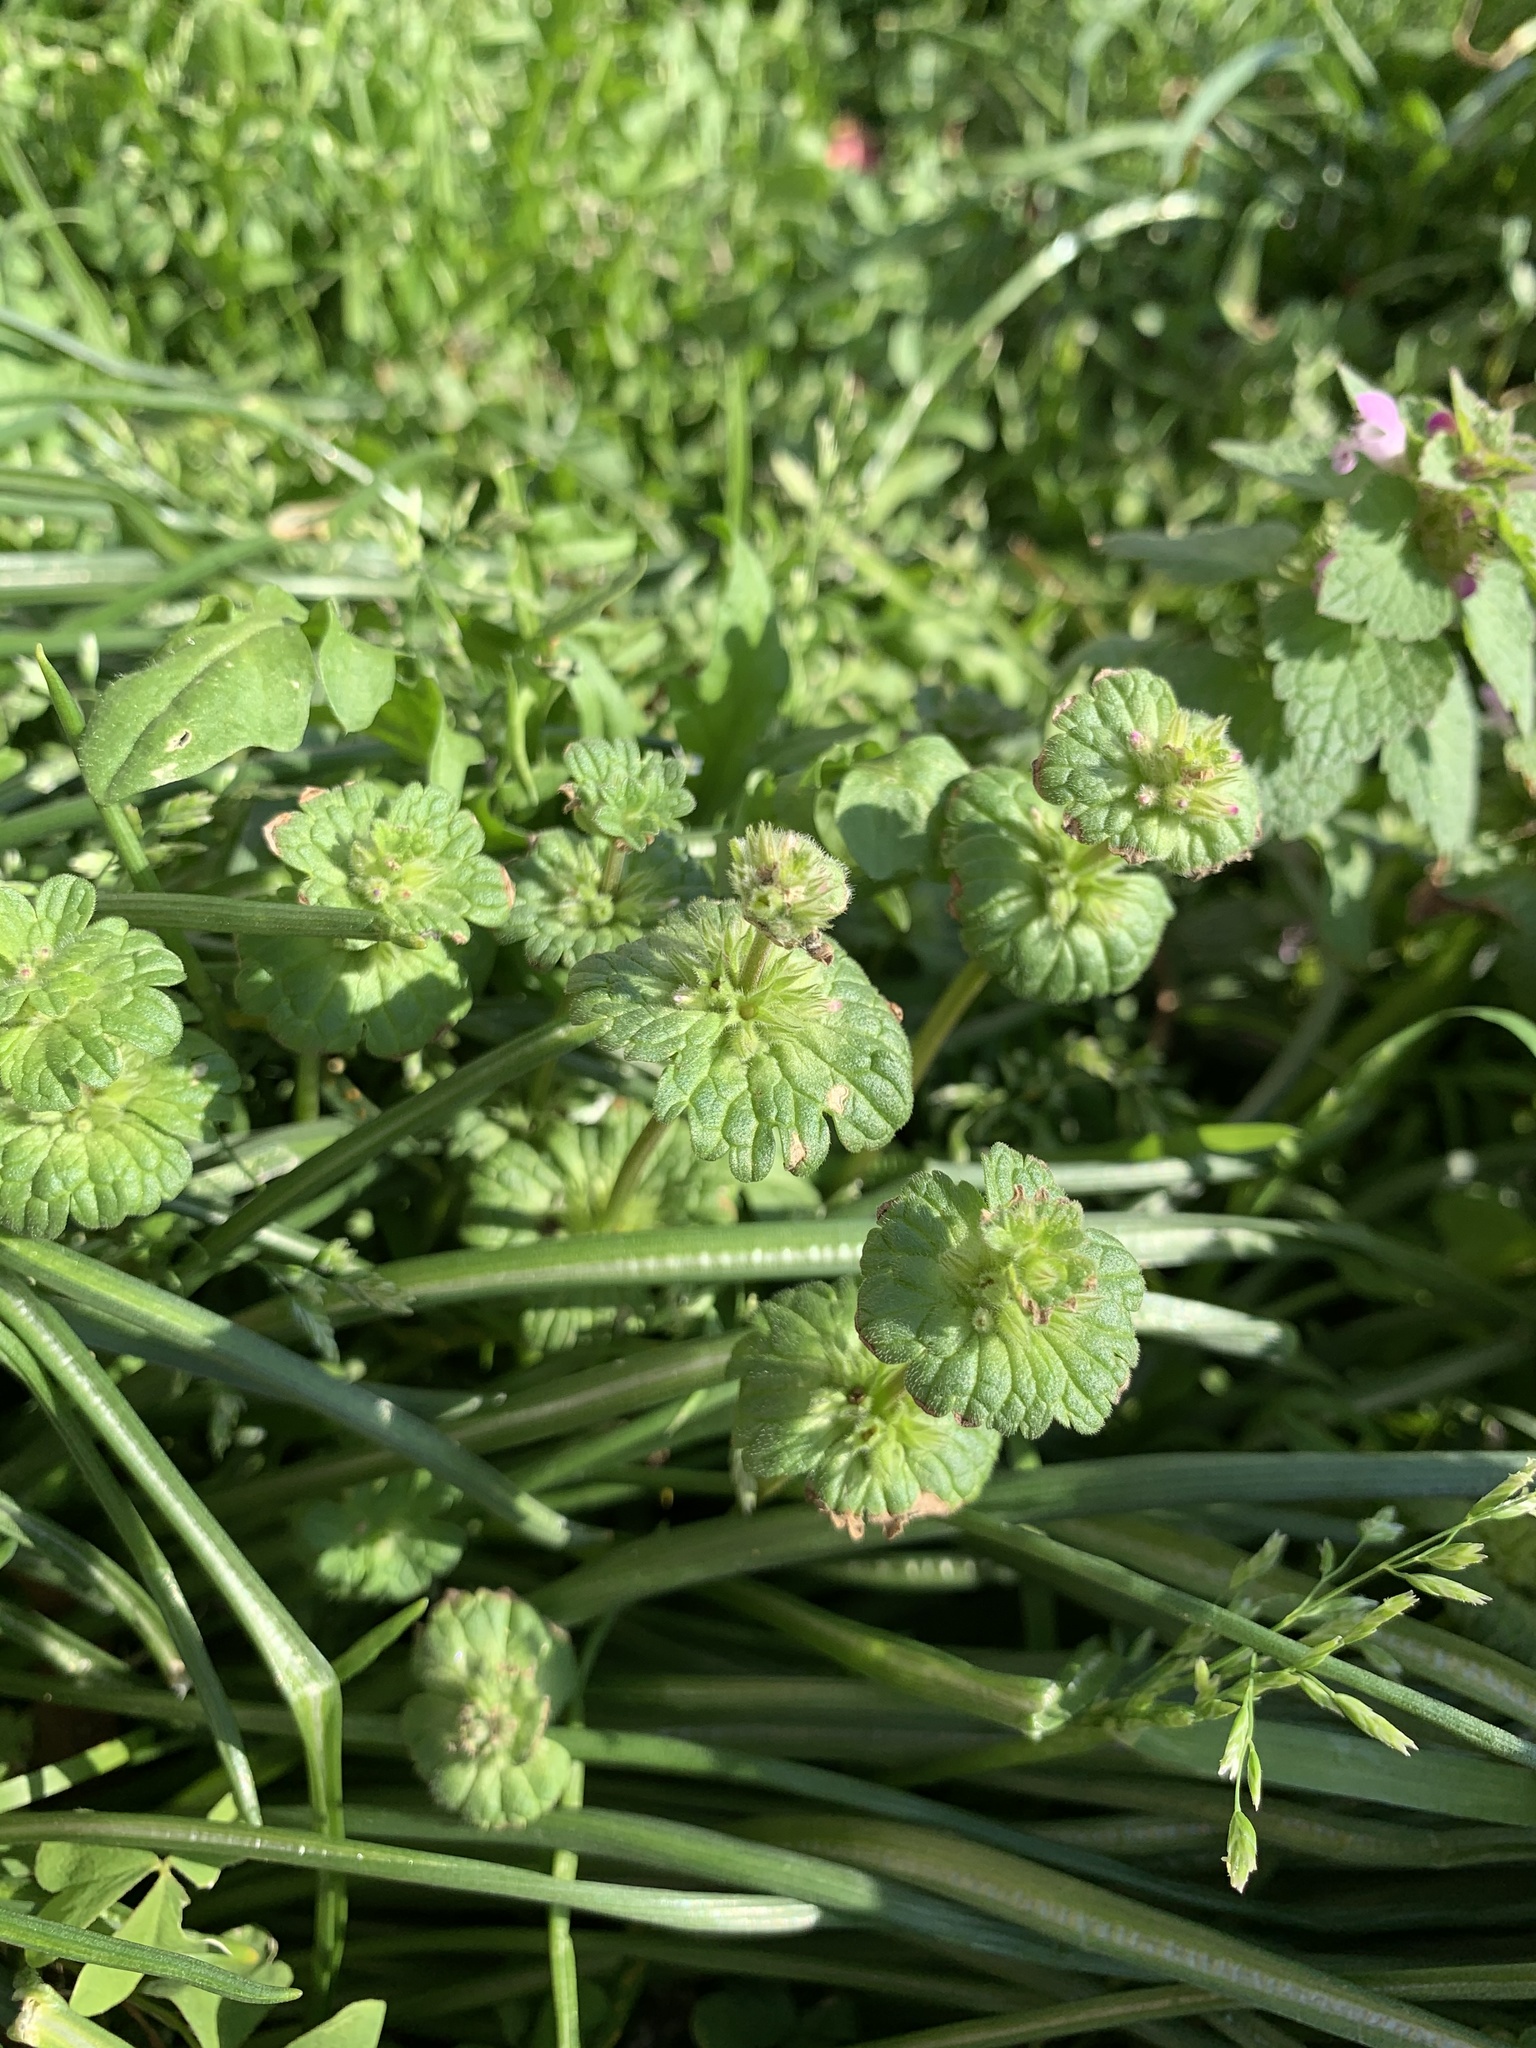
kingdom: Plantae
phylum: Tracheophyta
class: Magnoliopsida
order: Lamiales
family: Lamiaceae
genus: Lamium
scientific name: Lamium amplexicaule
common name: Henbit dead-nettle
